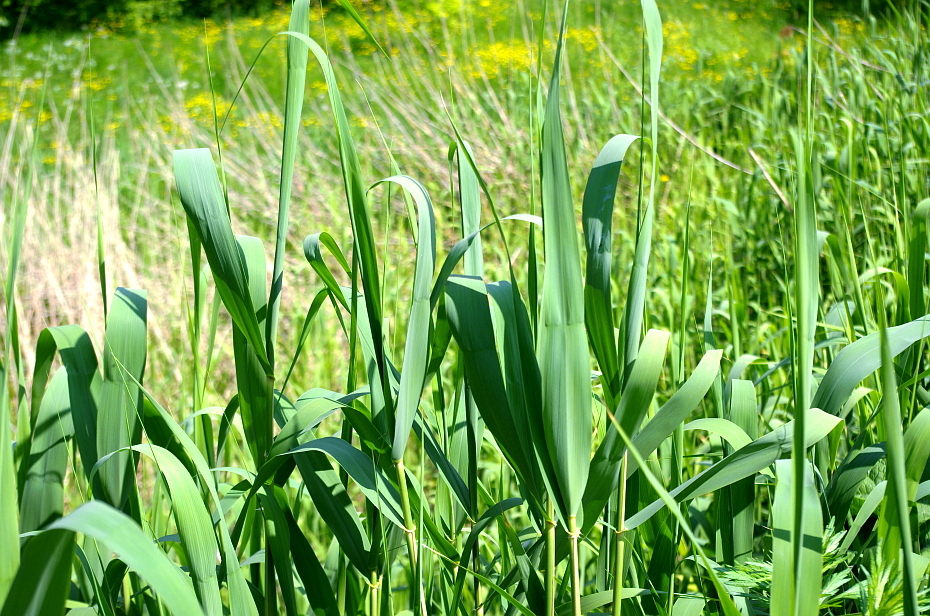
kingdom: Plantae
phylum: Tracheophyta
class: Liliopsida
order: Poales
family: Poaceae
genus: Phragmites
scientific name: Phragmites australis
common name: Common reed
